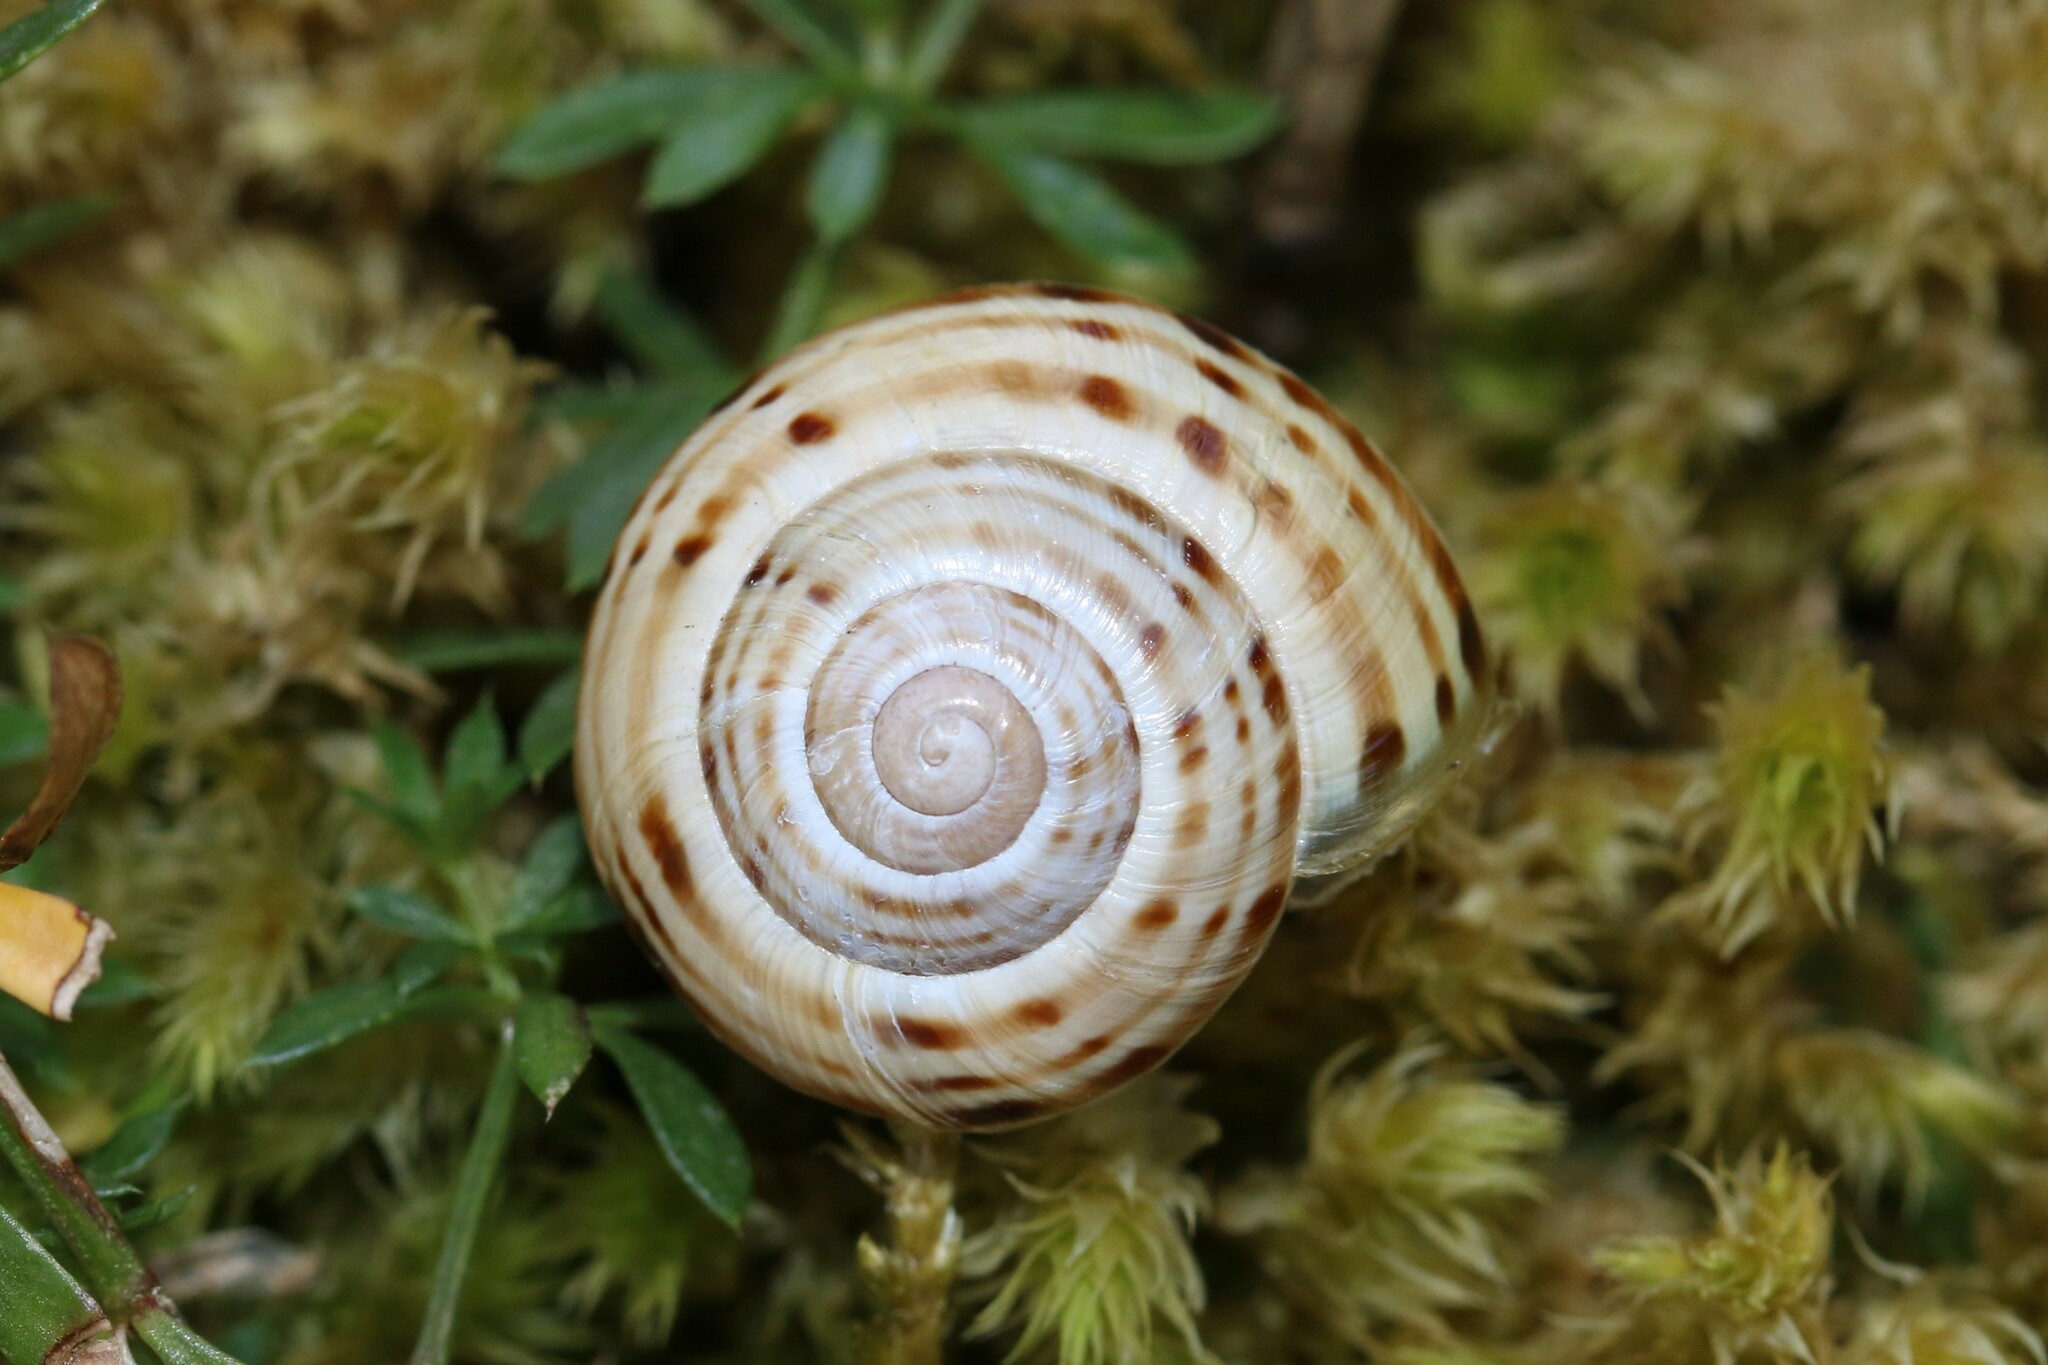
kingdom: Animalia
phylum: Mollusca
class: Gastropoda
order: Stylommatophora
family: Helicidae
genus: Macularia
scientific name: Macularia sylvatica
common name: Hélice sylvatique
